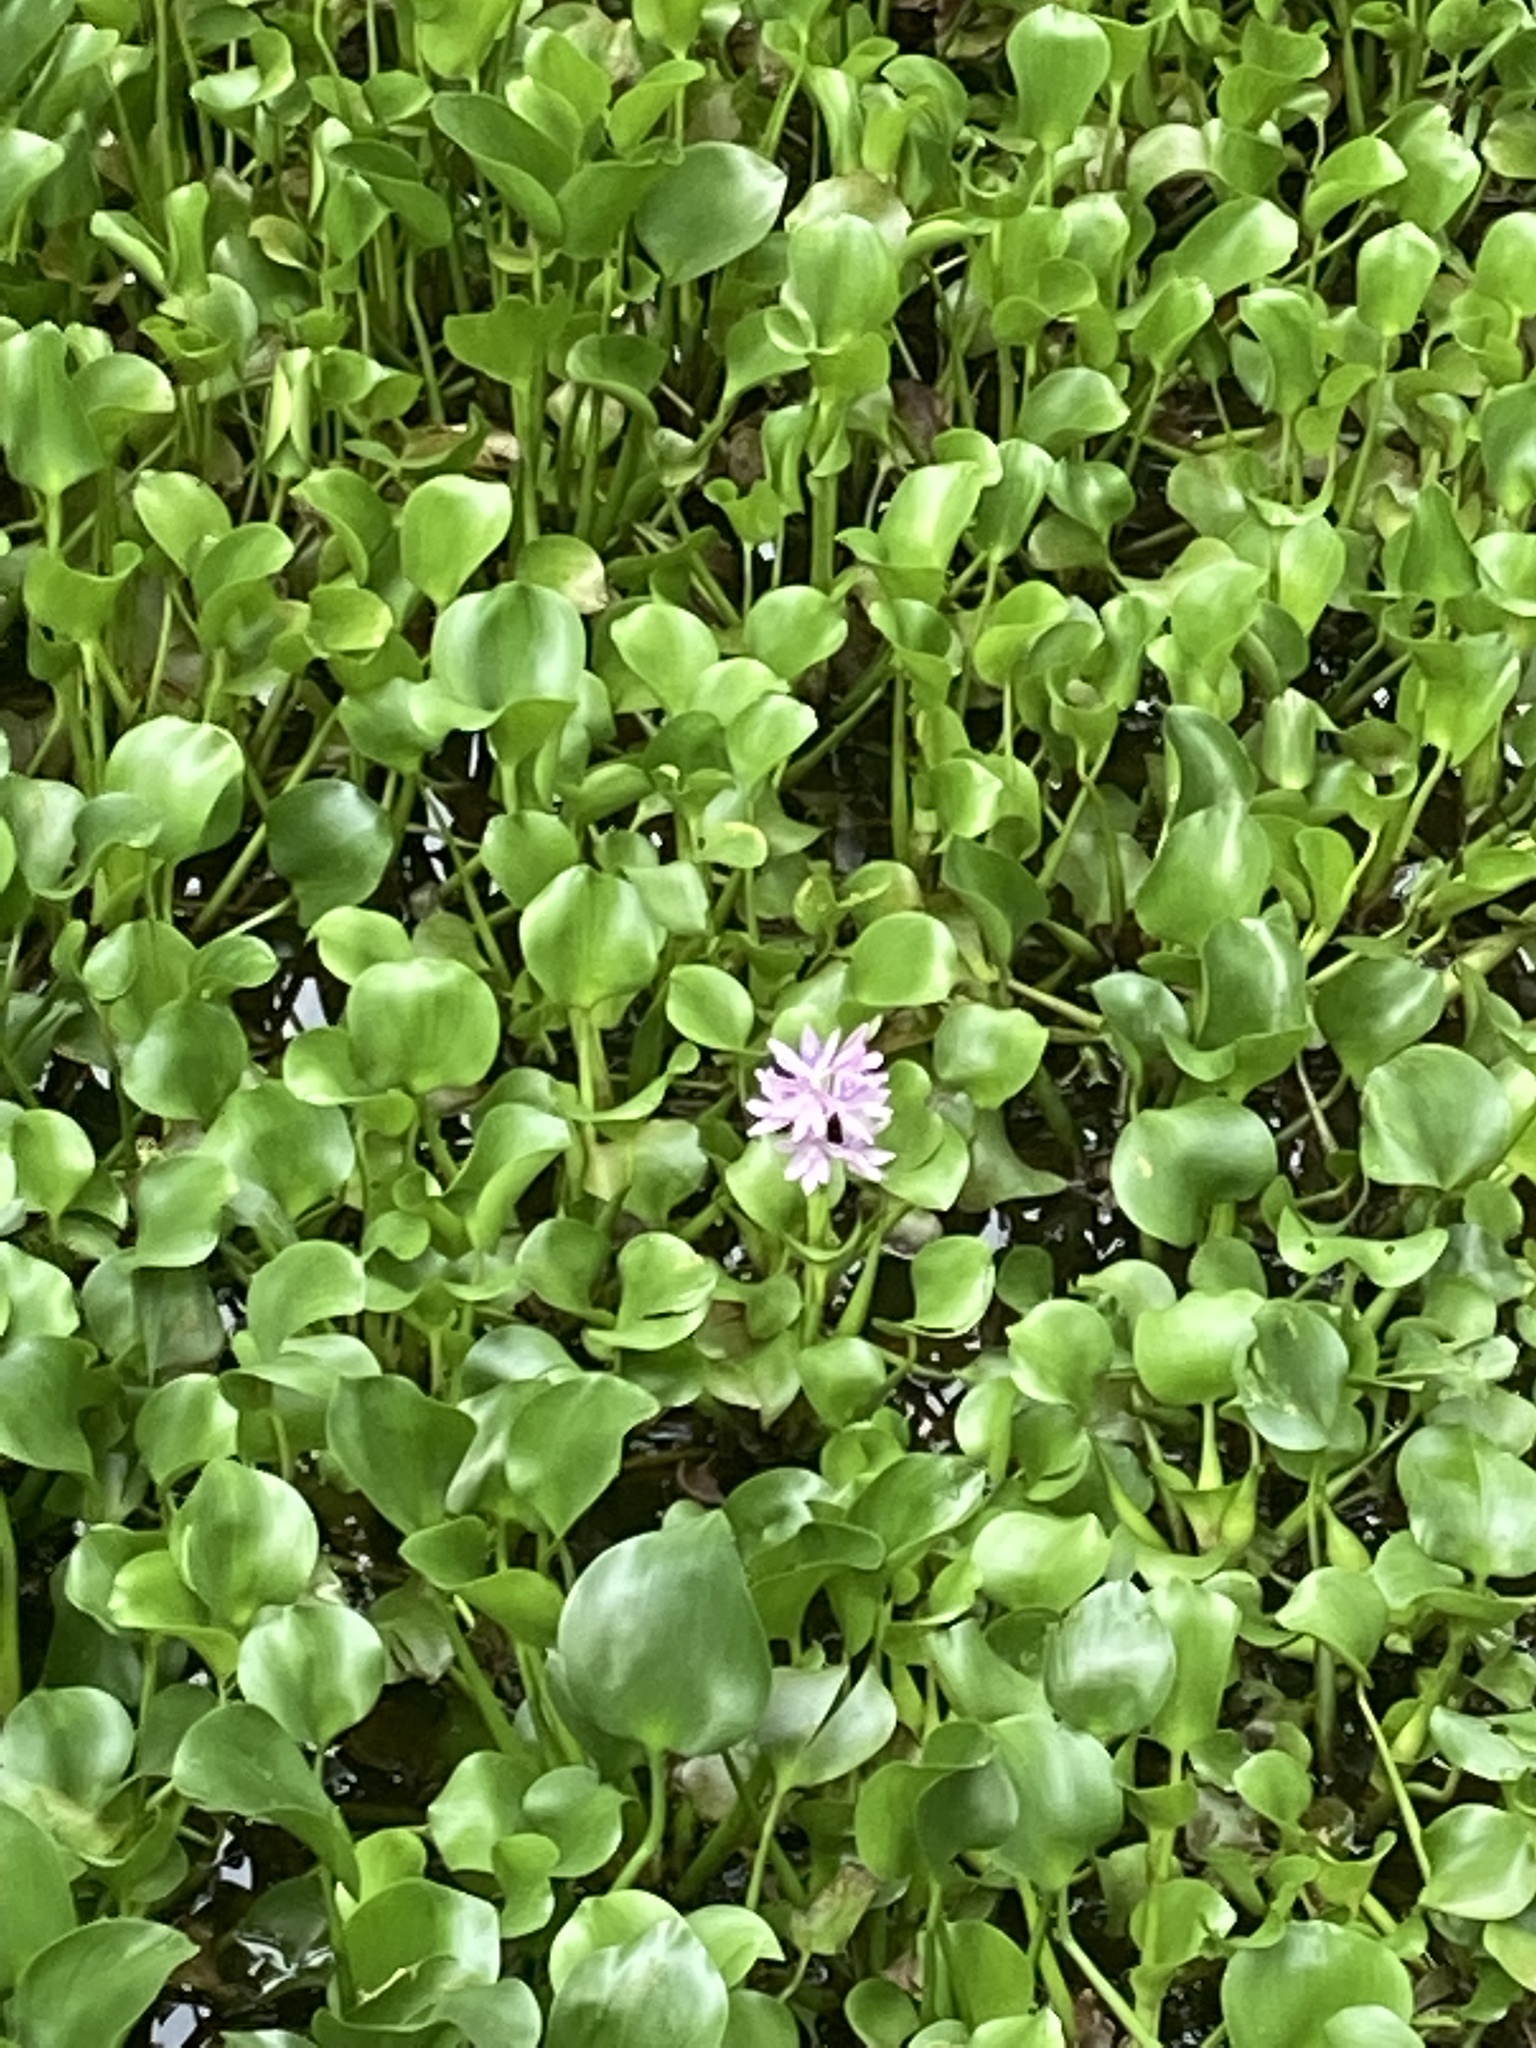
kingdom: Plantae
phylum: Tracheophyta
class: Liliopsida
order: Commelinales
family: Pontederiaceae
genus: Pontederia
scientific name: Pontederia crassipes
